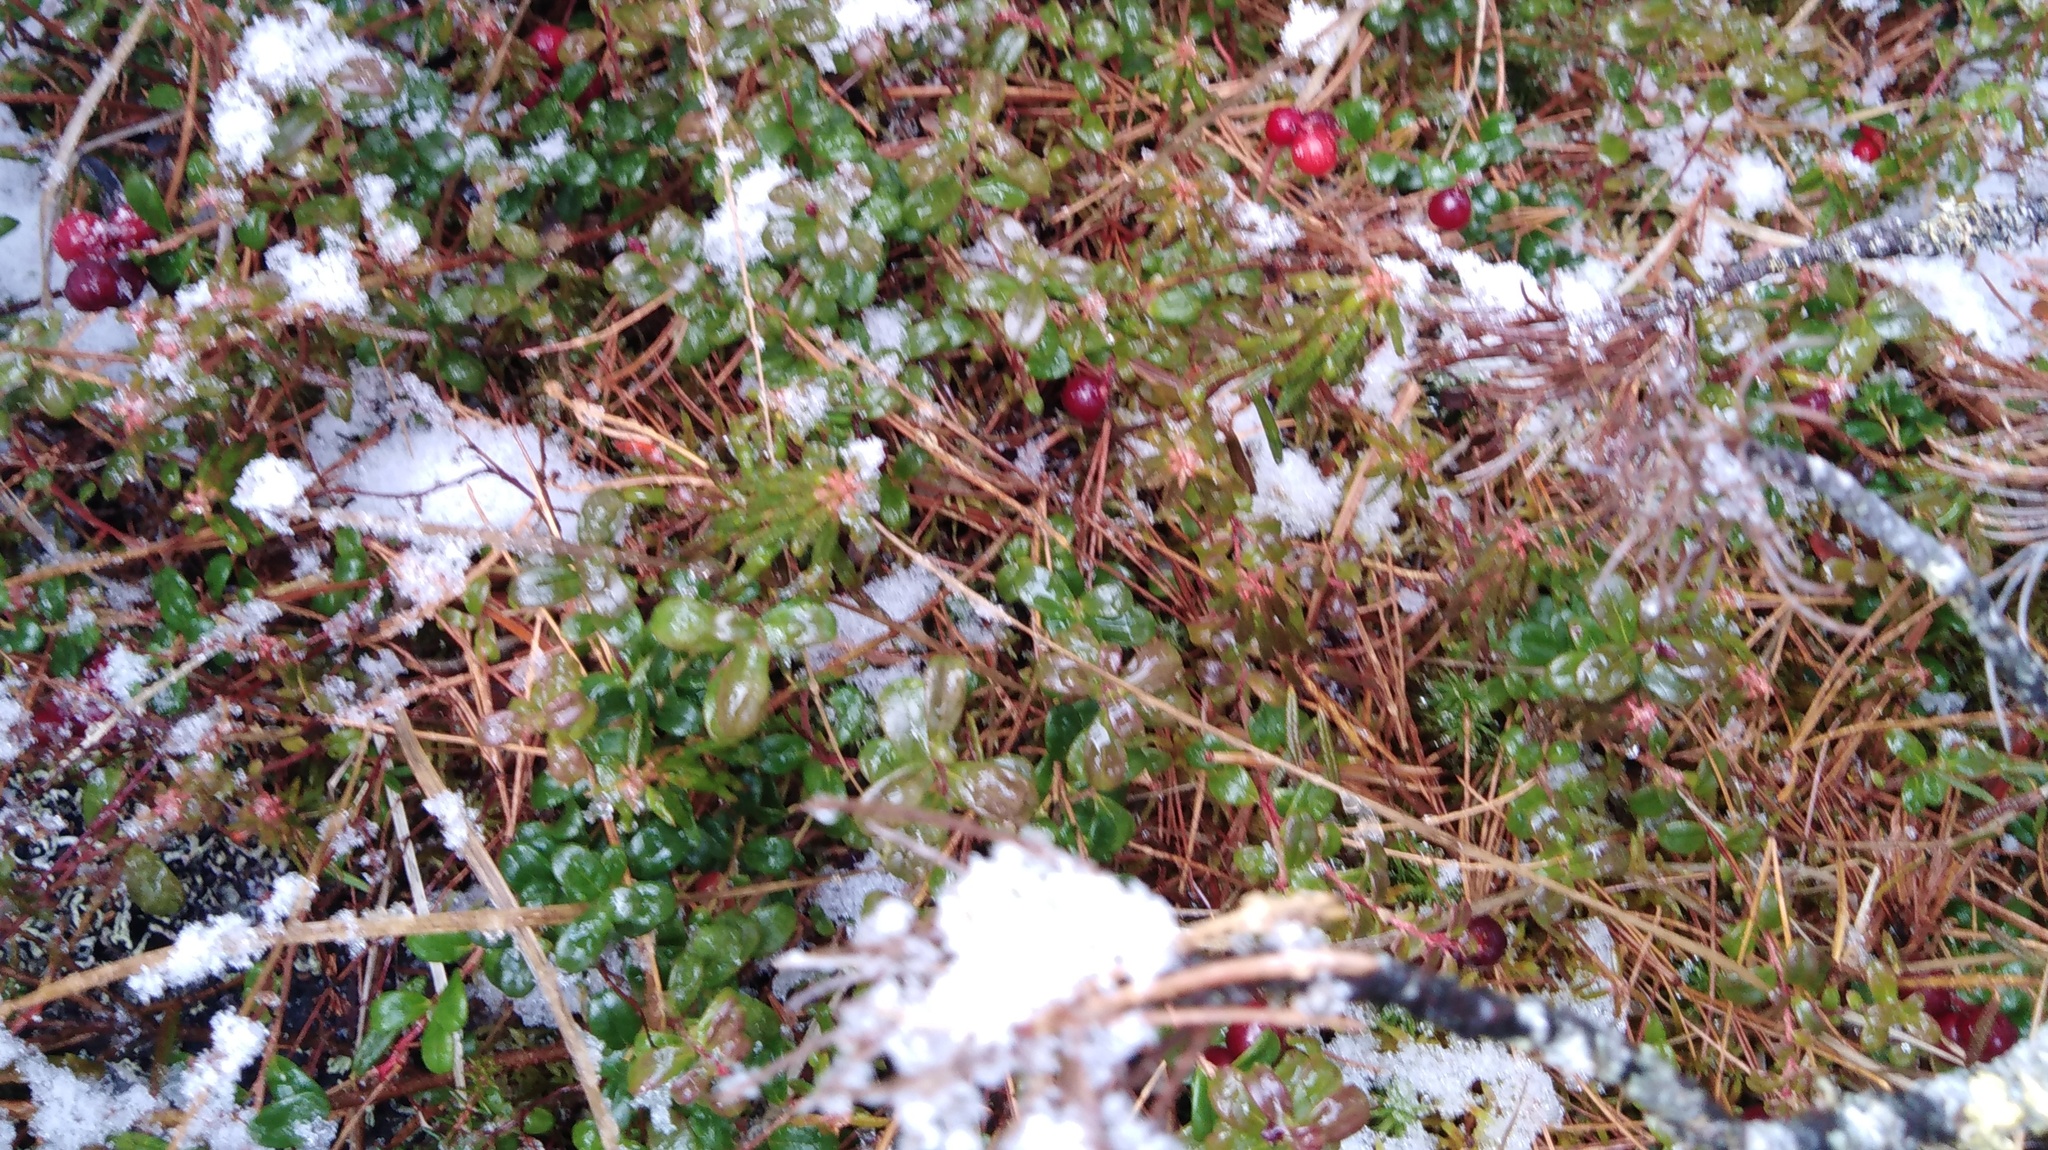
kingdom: Plantae
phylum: Tracheophyta
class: Magnoliopsida
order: Ericales
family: Ericaceae
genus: Vaccinium
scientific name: Vaccinium vitis-idaea
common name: Cowberry
